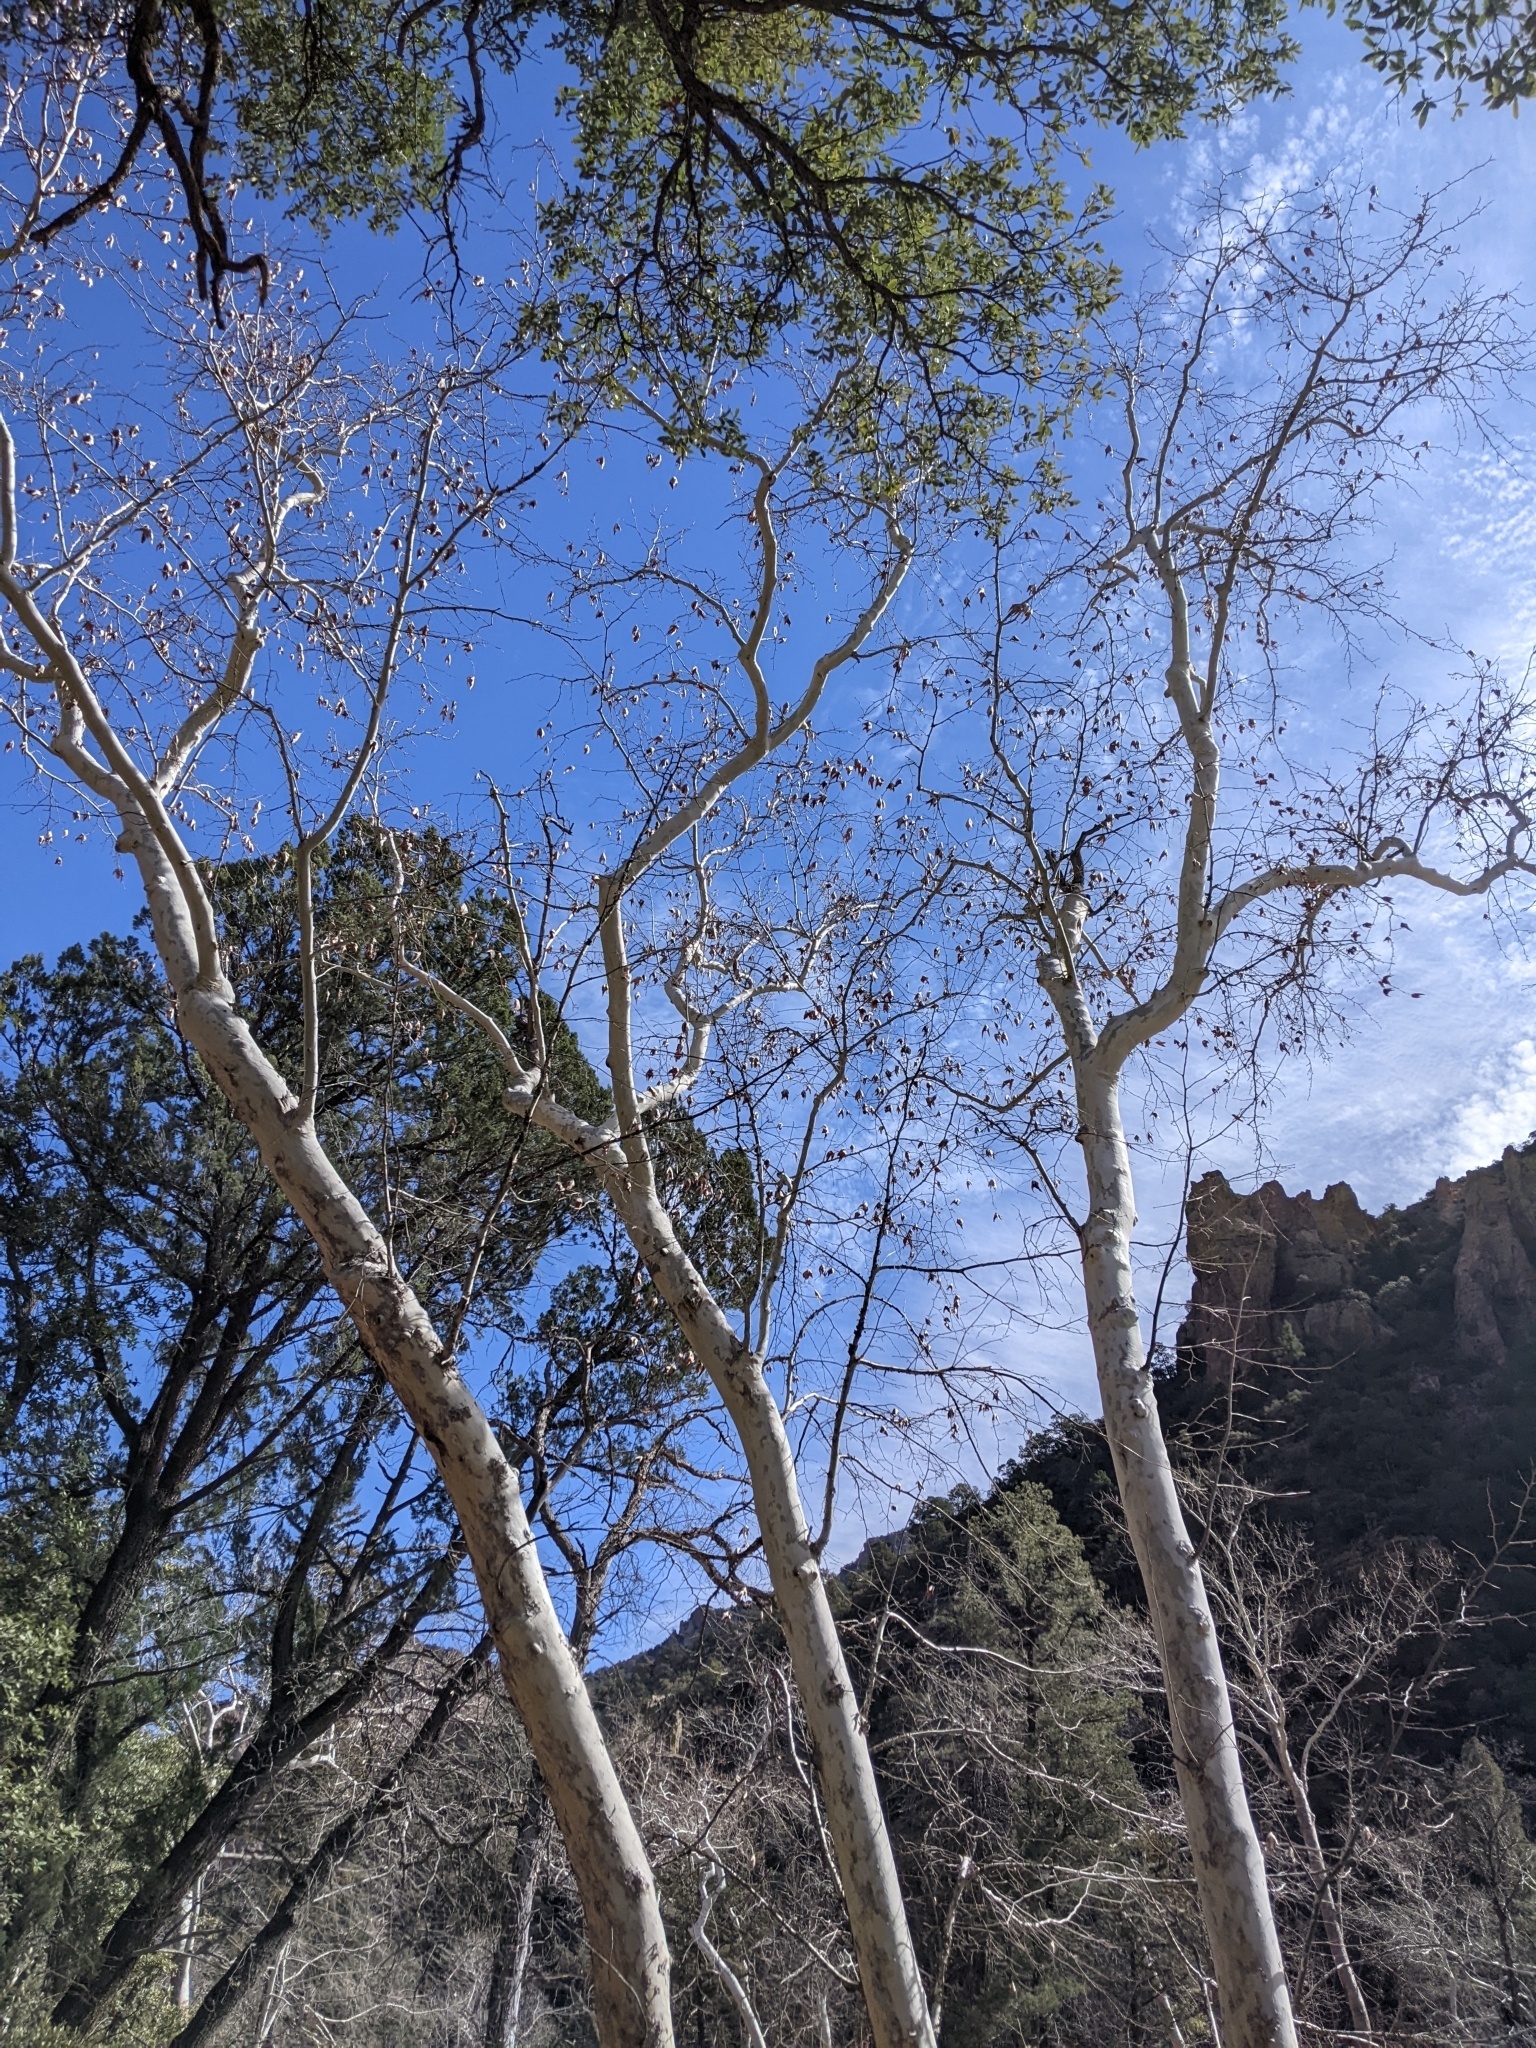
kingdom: Plantae
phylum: Tracheophyta
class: Magnoliopsida
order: Proteales
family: Platanaceae
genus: Platanus
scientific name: Platanus wrightii
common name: Arizona sycamore
